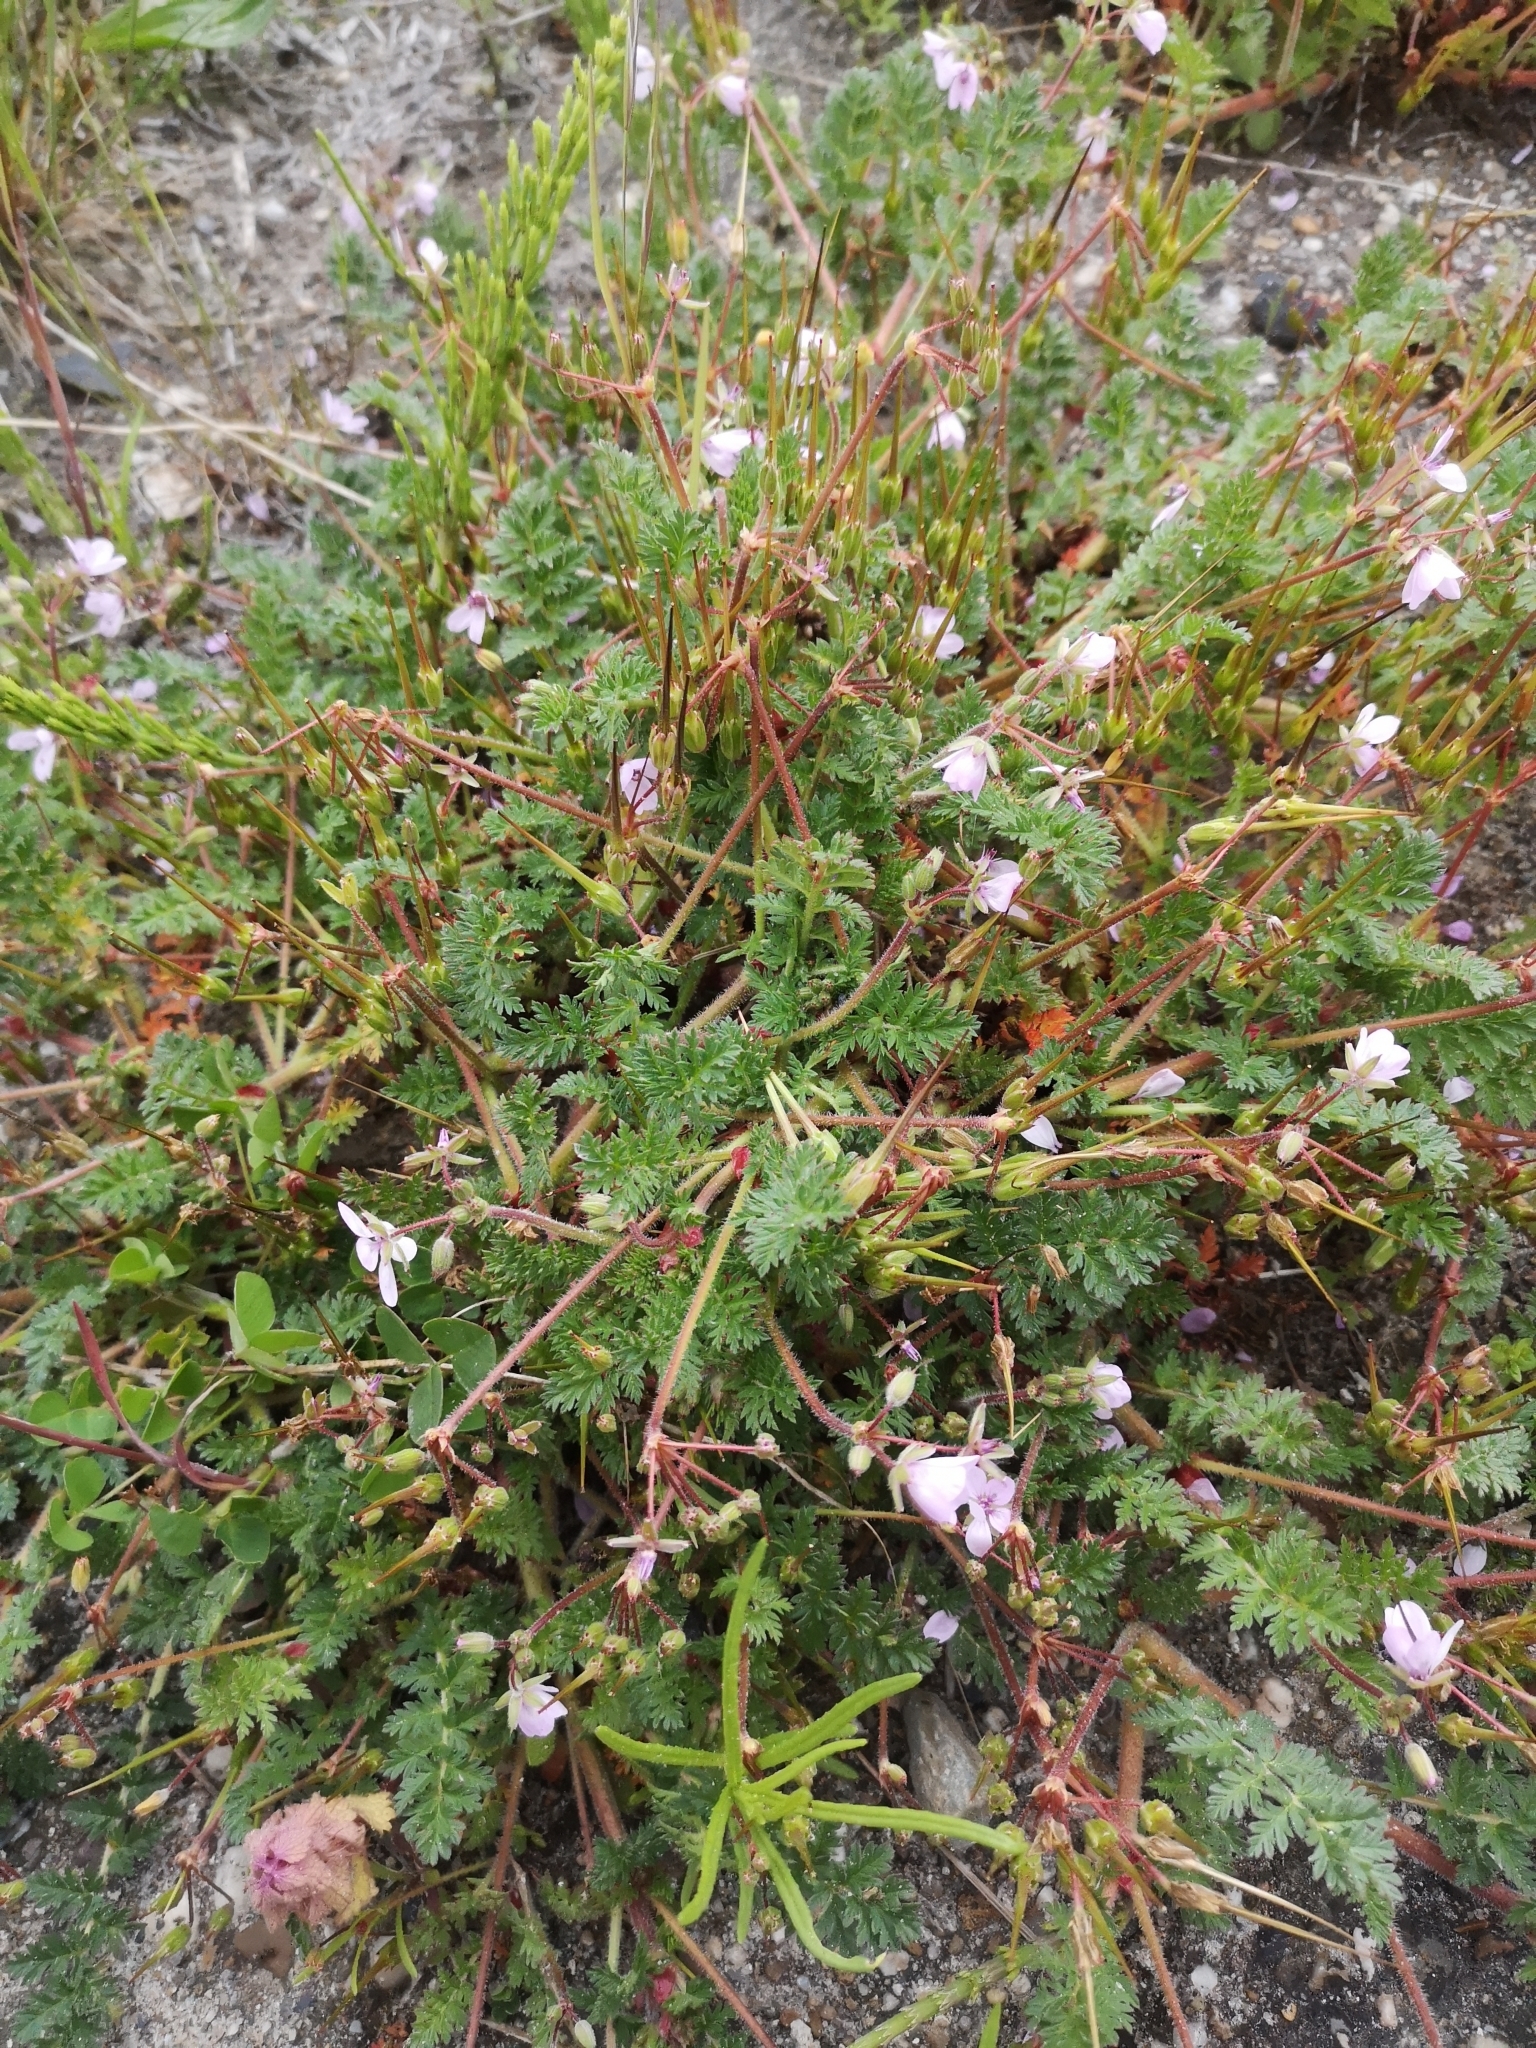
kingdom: Plantae
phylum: Tracheophyta
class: Magnoliopsida
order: Geraniales
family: Geraniaceae
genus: Erodium
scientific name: Erodium cicutarium
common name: Common stork's-bill
